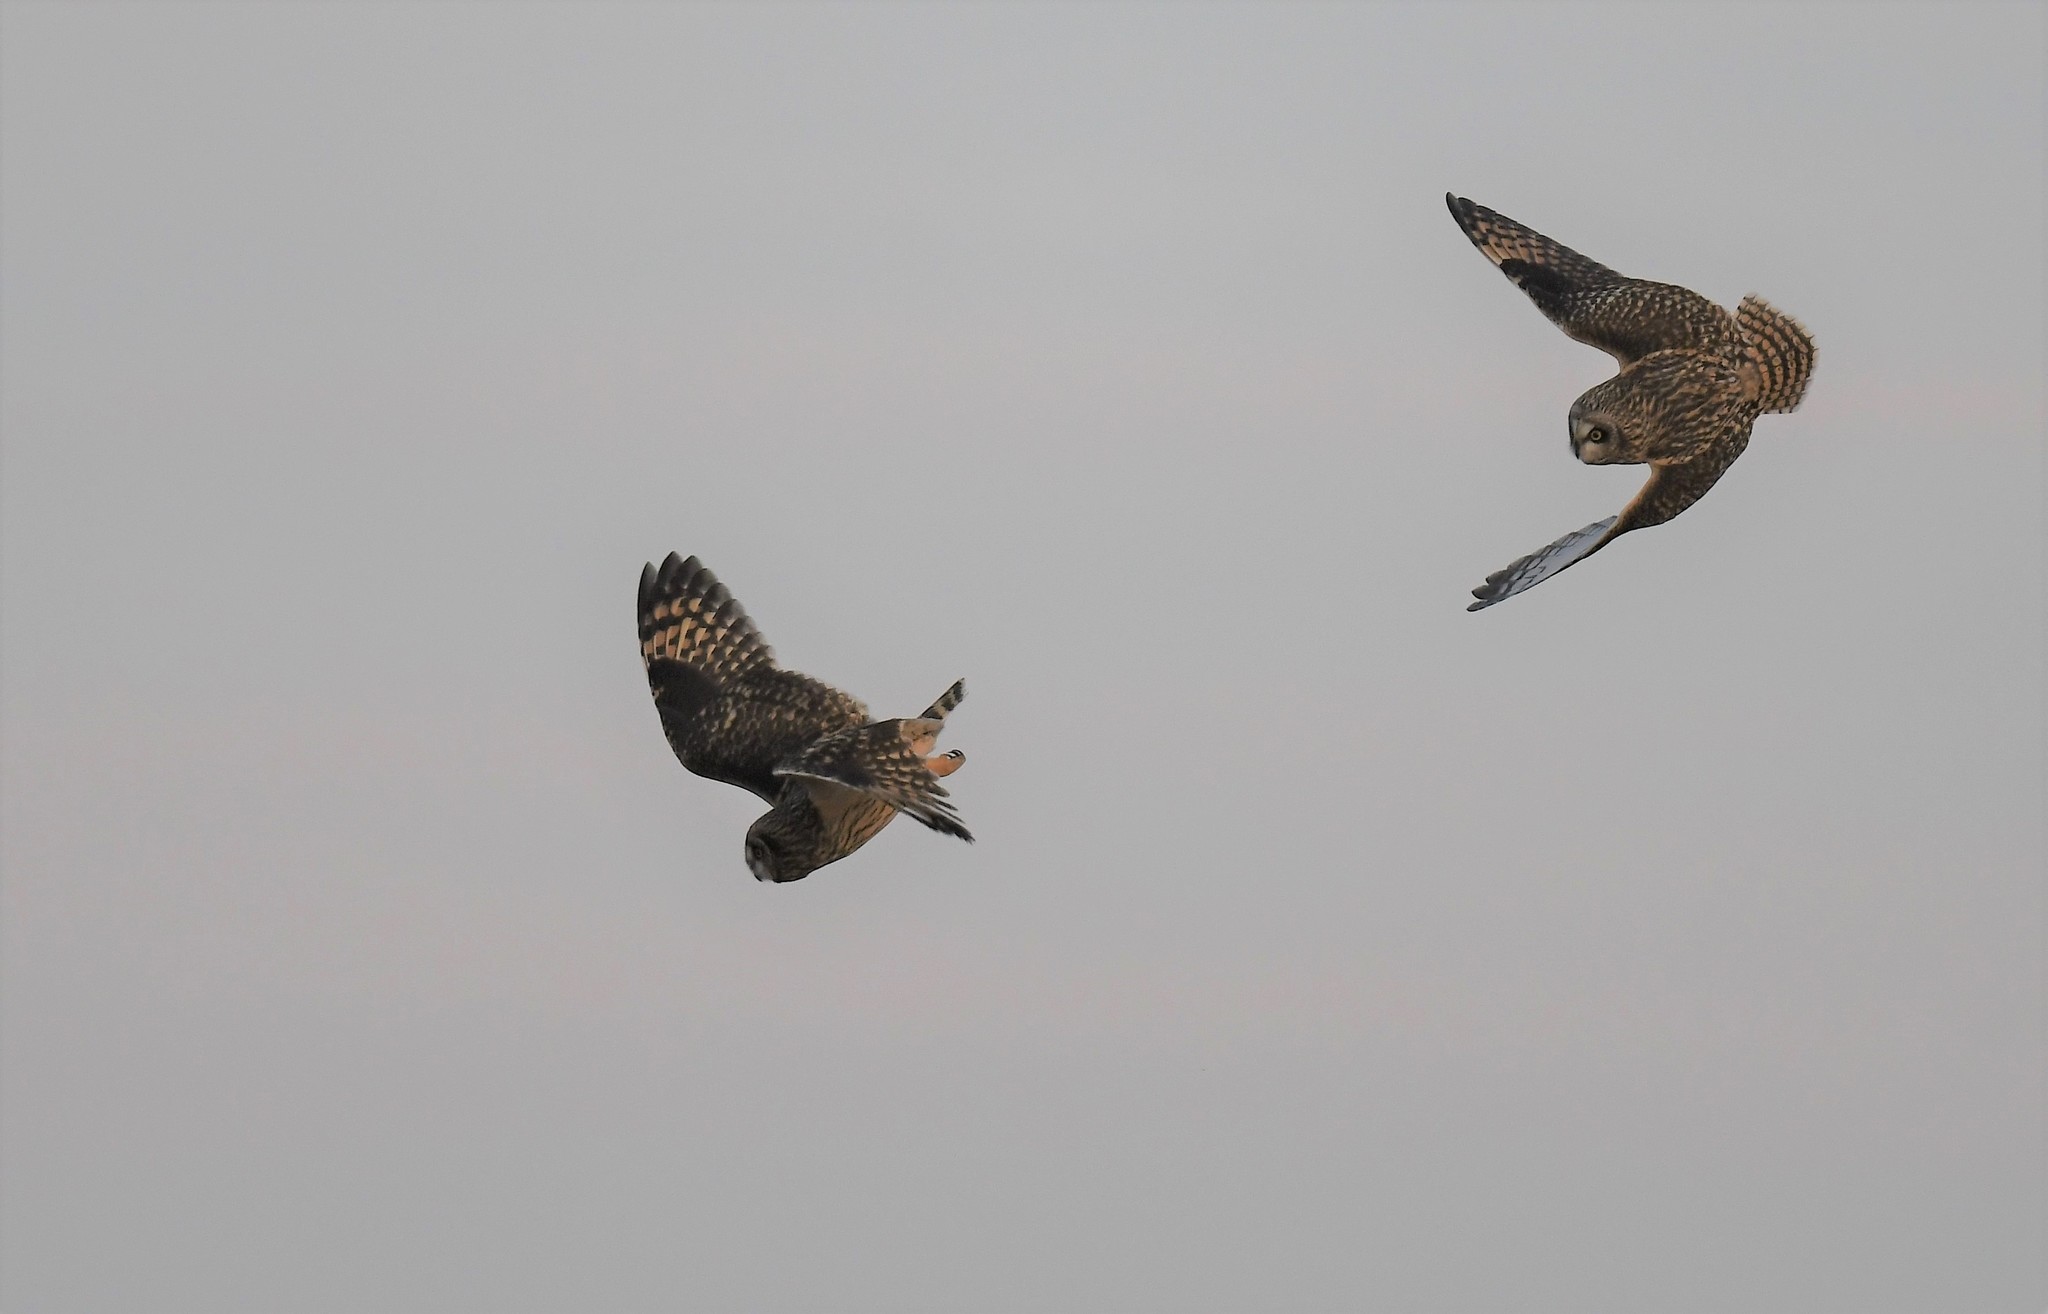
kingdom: Animalia
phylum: Chordata
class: Aves
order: Strigiformes
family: Strigidae
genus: Asio
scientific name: Asio flammeus
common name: Short-eared owl
